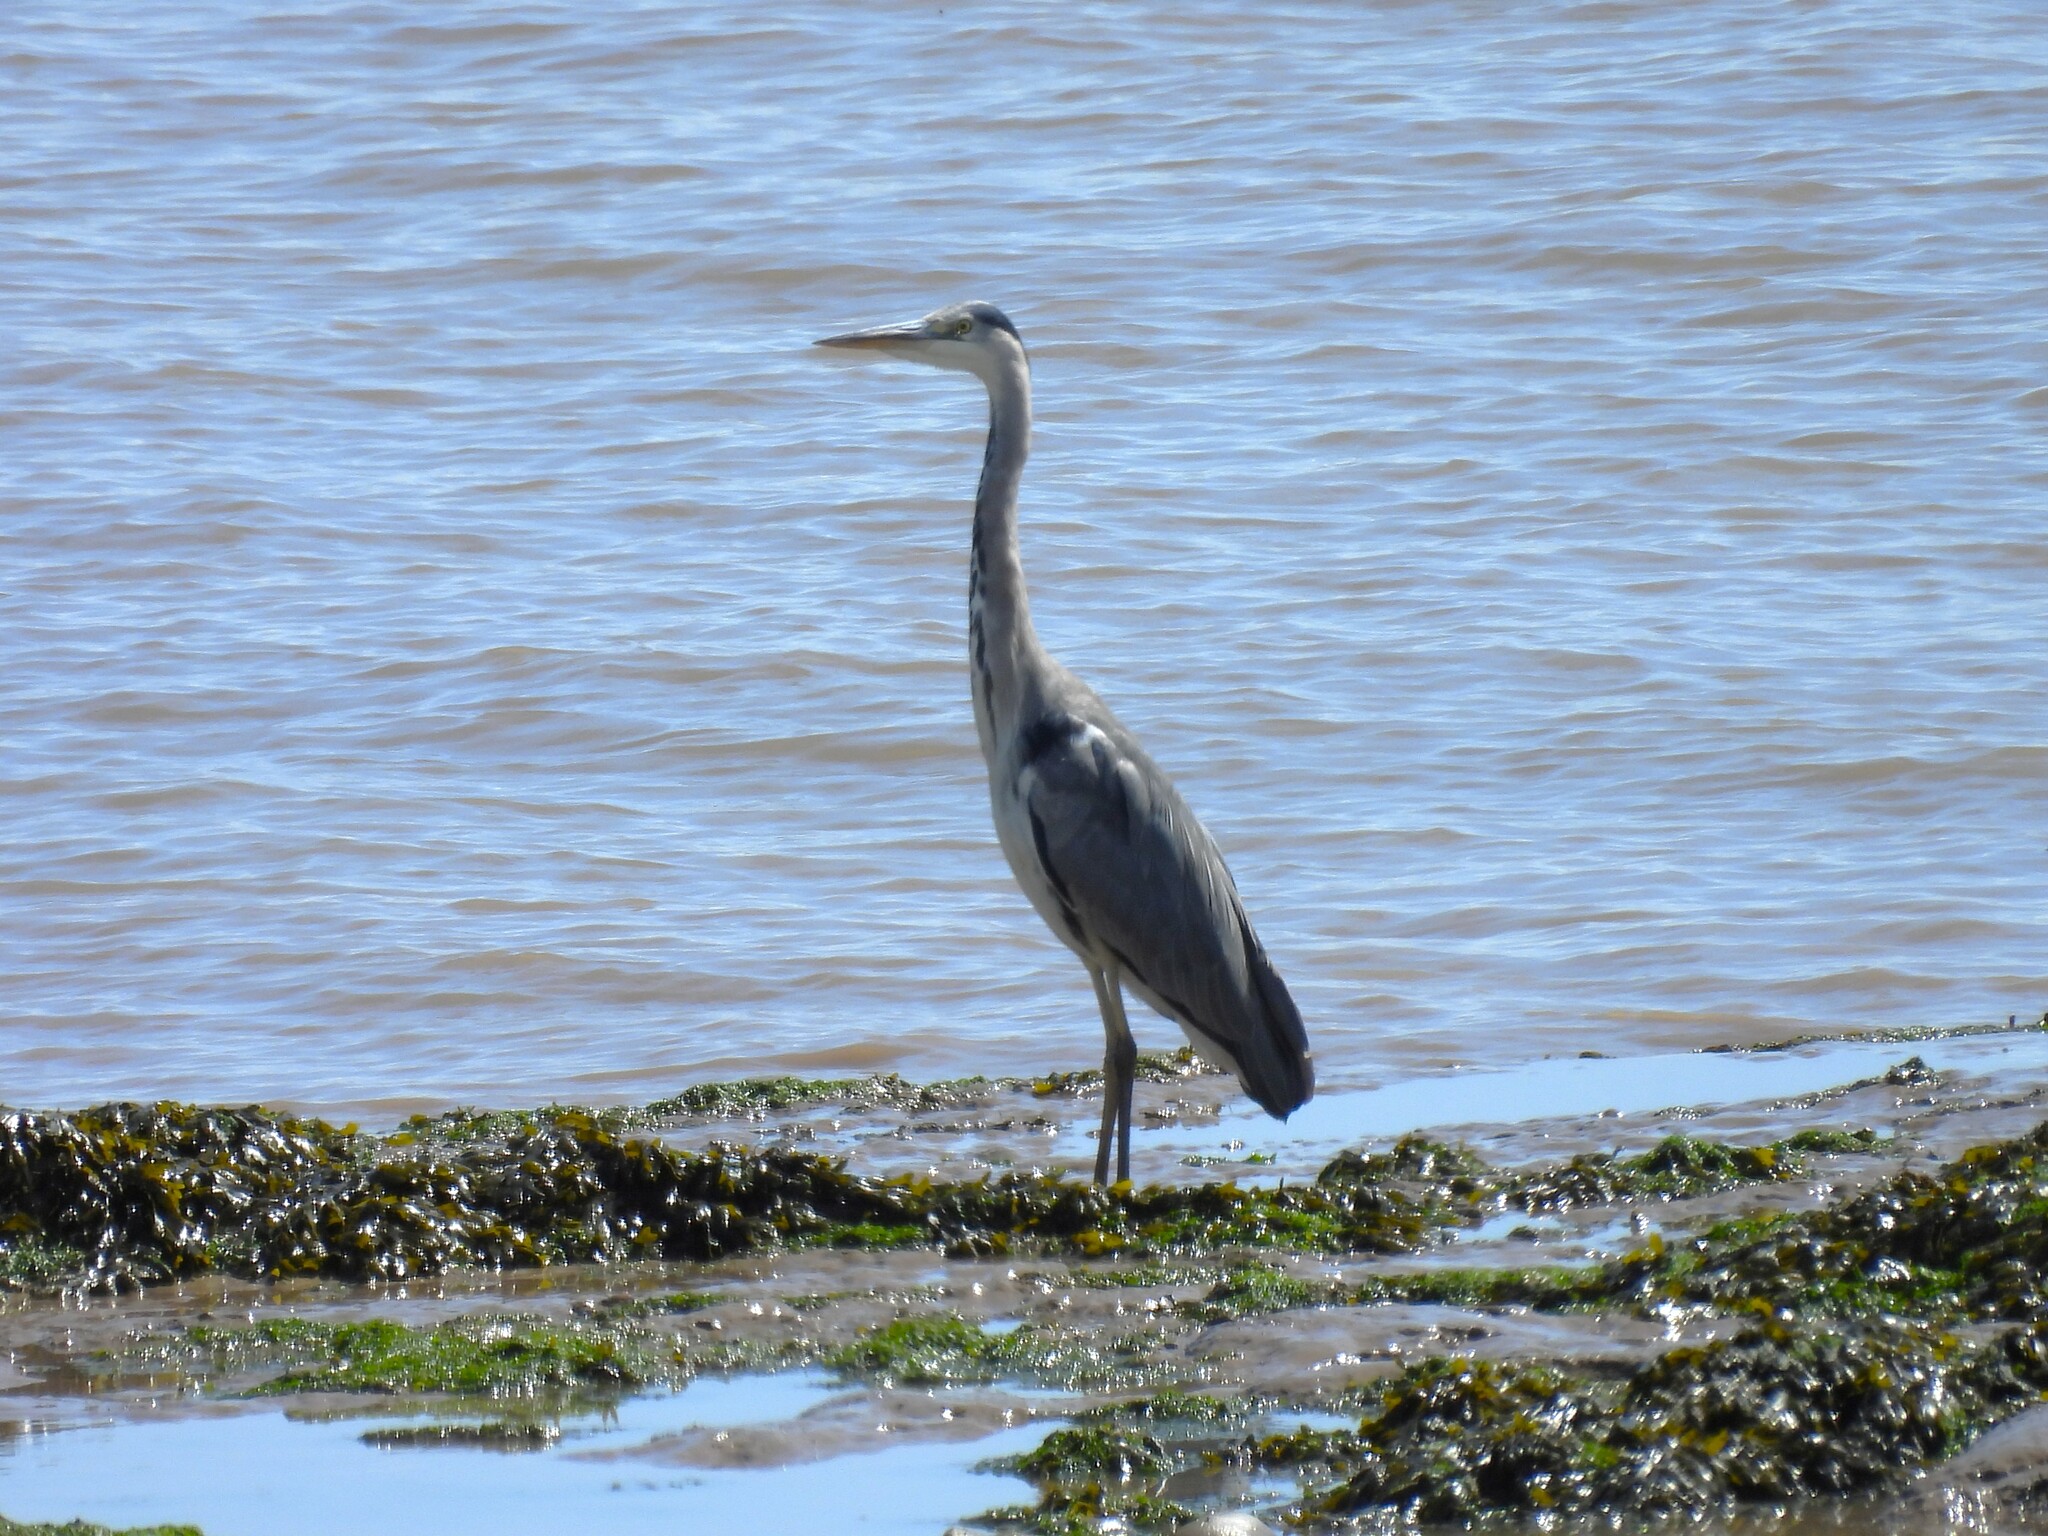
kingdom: Animalia
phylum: Chordata
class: Aves
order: Pelecaniformes
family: Ardeidae
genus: Ardea
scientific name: Ardea cinerea
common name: Grey heron
